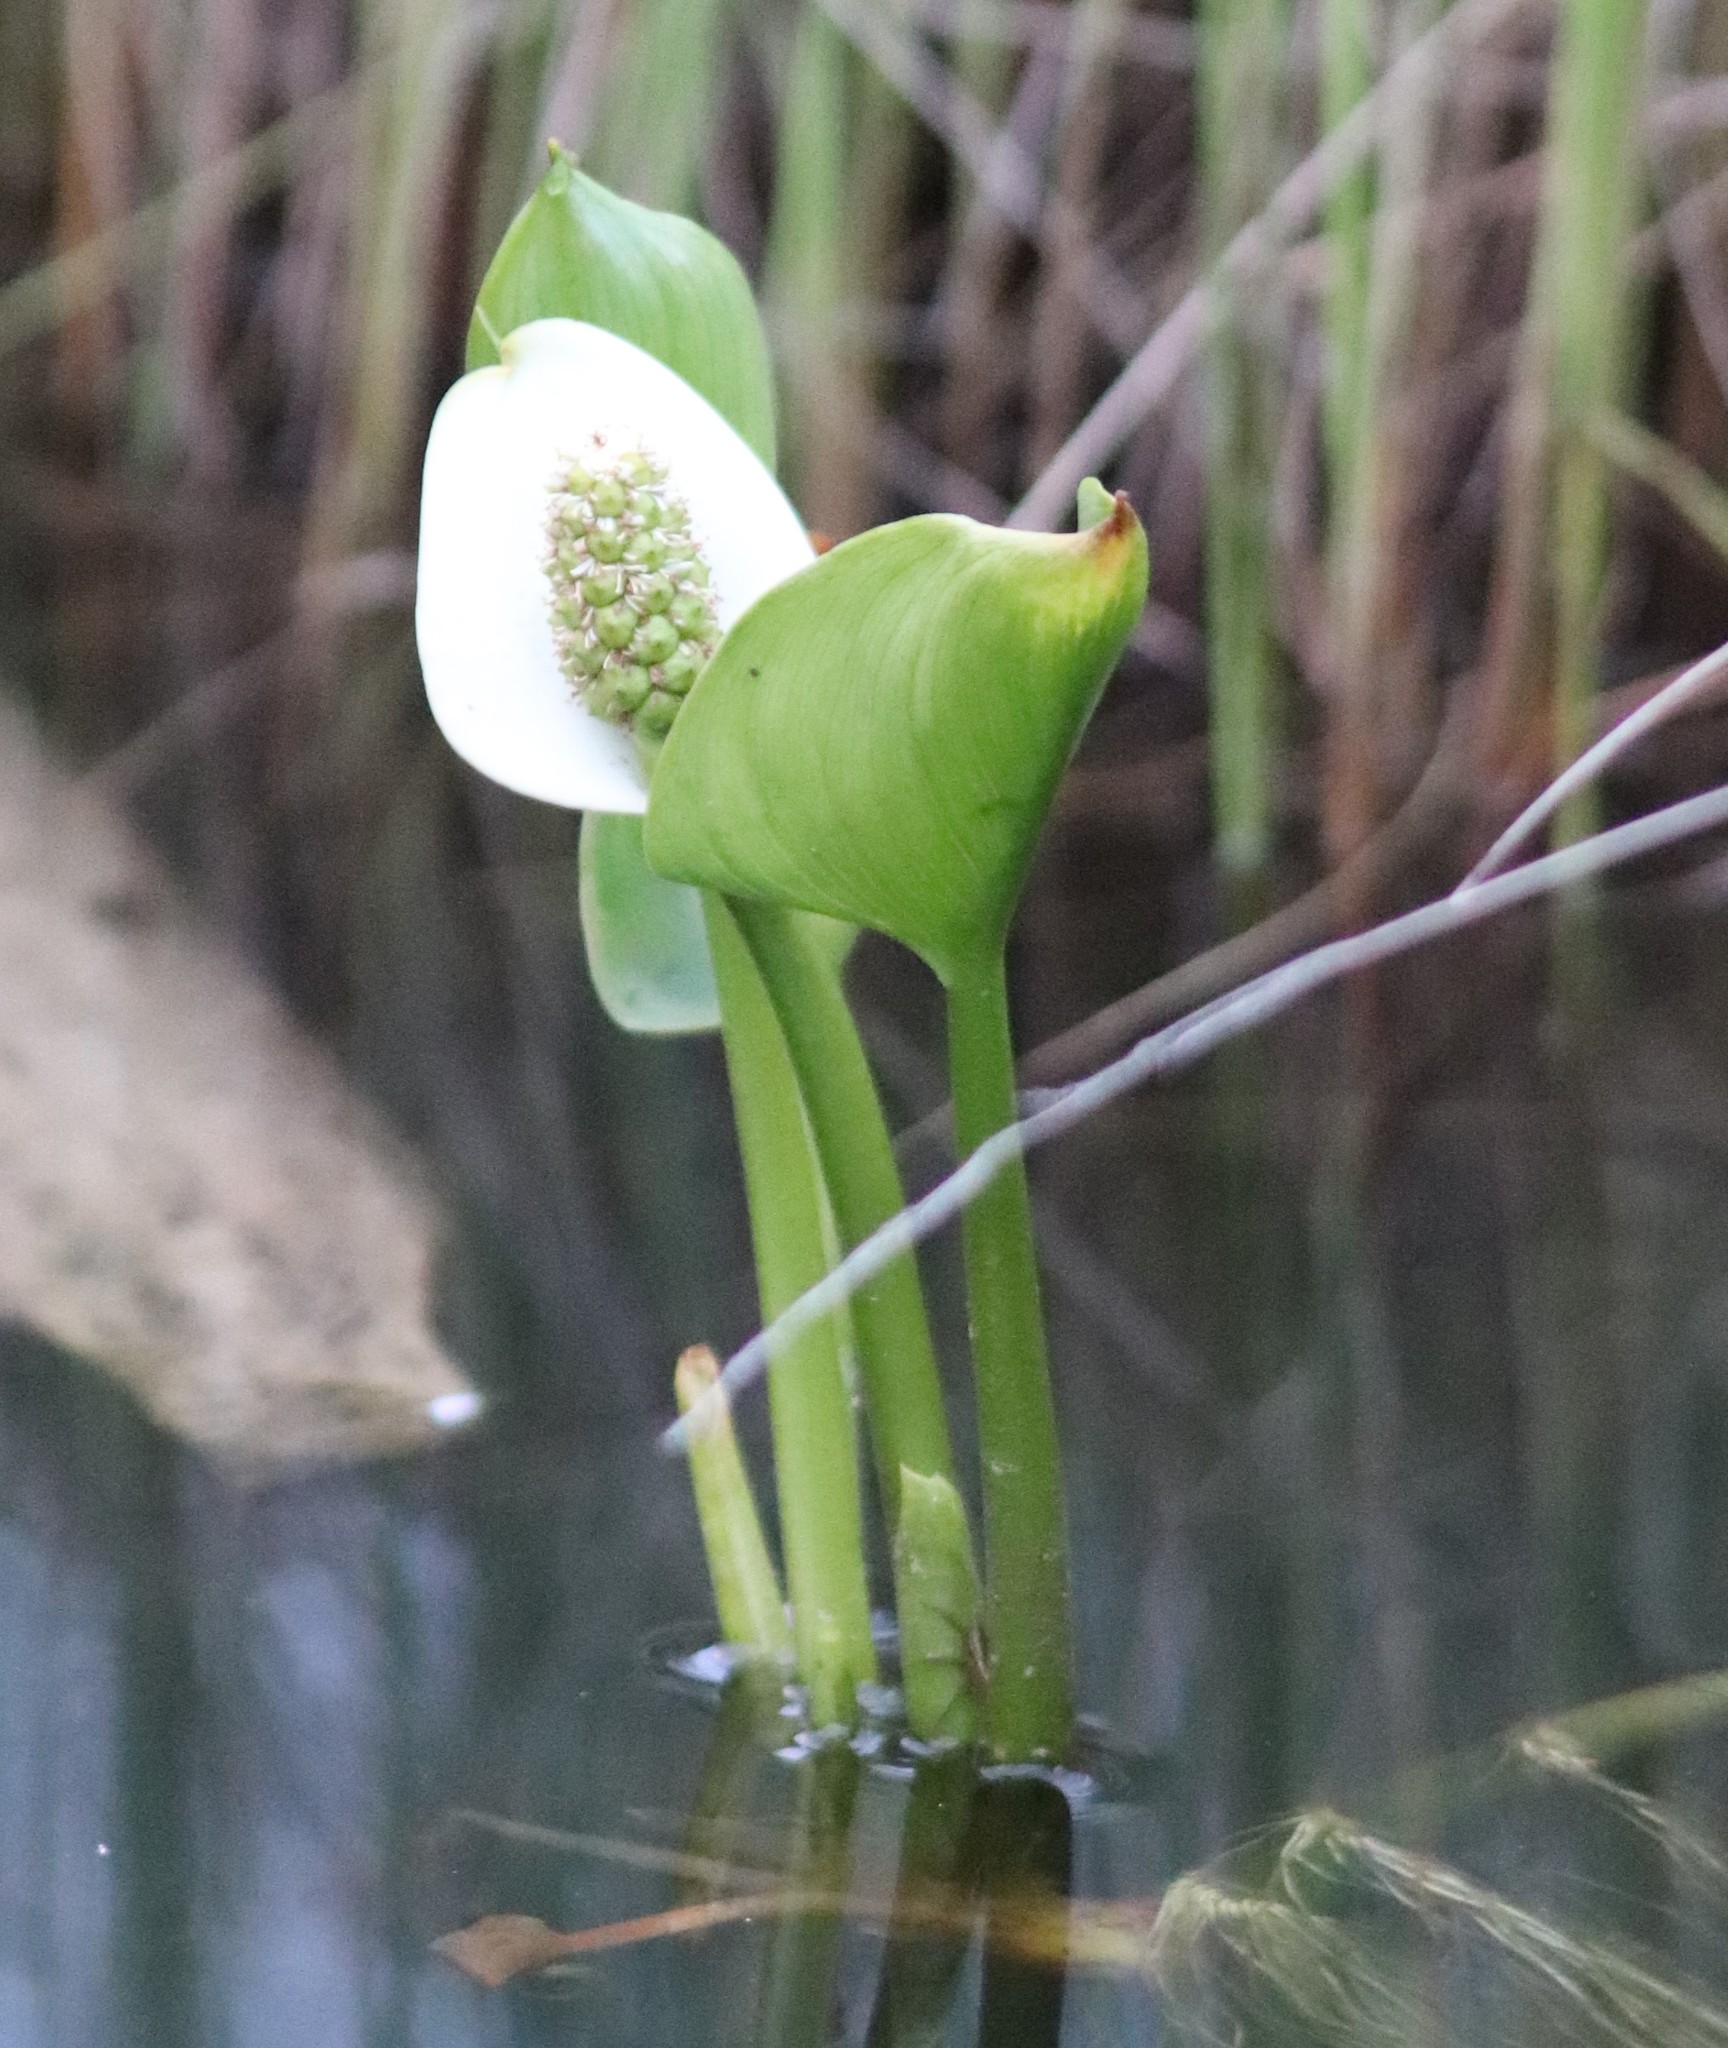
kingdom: Plantae
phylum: Tracheophyta
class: Liliopsida
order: Alismatales
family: Araceae
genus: Calla
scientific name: Calla palustris
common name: Bog arum
